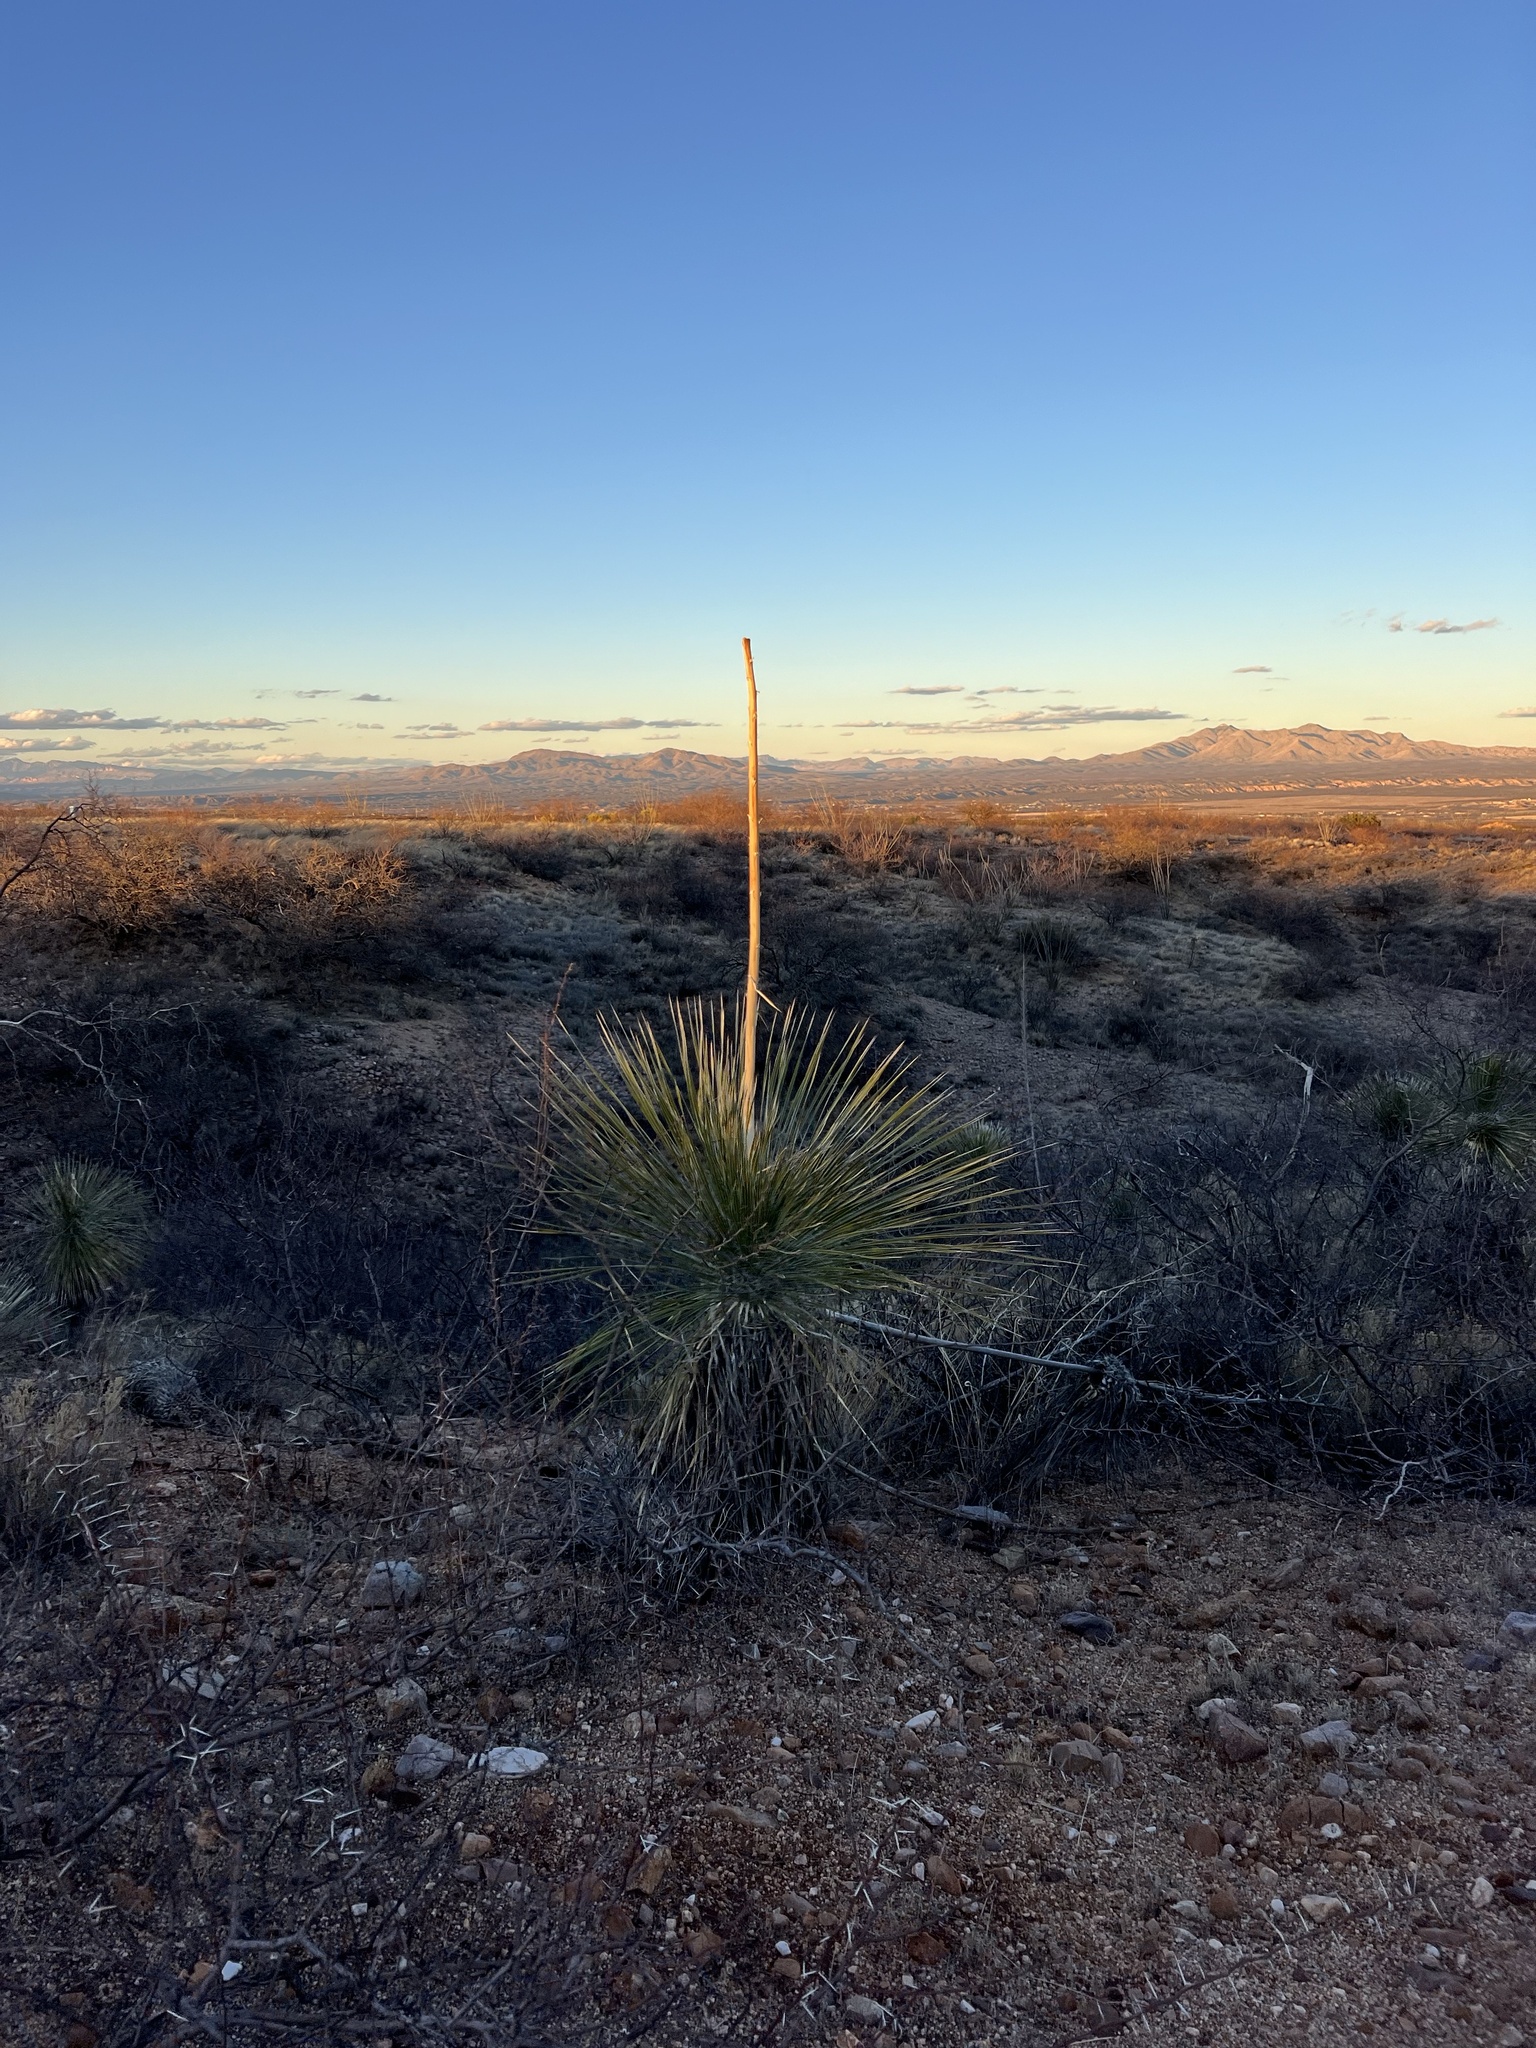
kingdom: Plantae
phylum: Tracheophyta
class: Liliopsida
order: Asparagales
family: Asparagaceae
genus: Yucca
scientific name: Yucca elata
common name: Palmella
